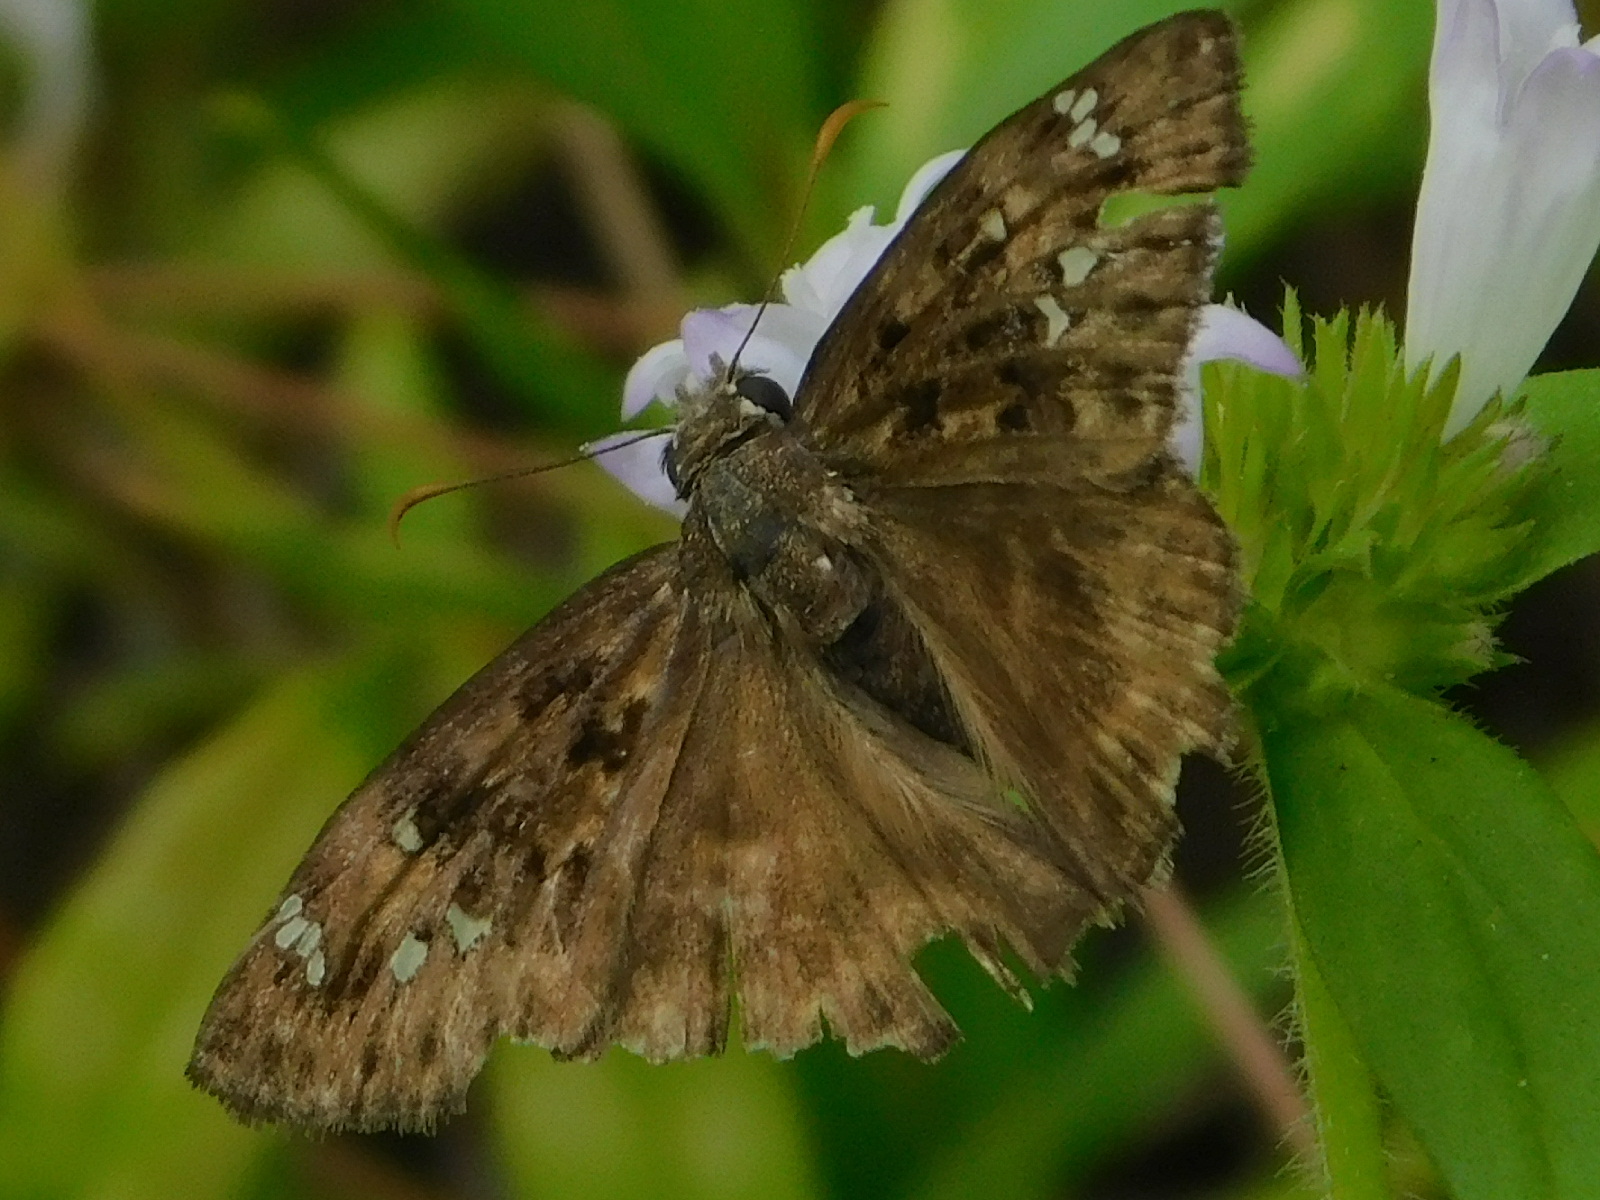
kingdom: Animalia
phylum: Arthropoda
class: Insecta
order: Lepidoptera
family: Hesperiidae
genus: Erynnis
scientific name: Erynnis horatius
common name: Horace's duskywing
